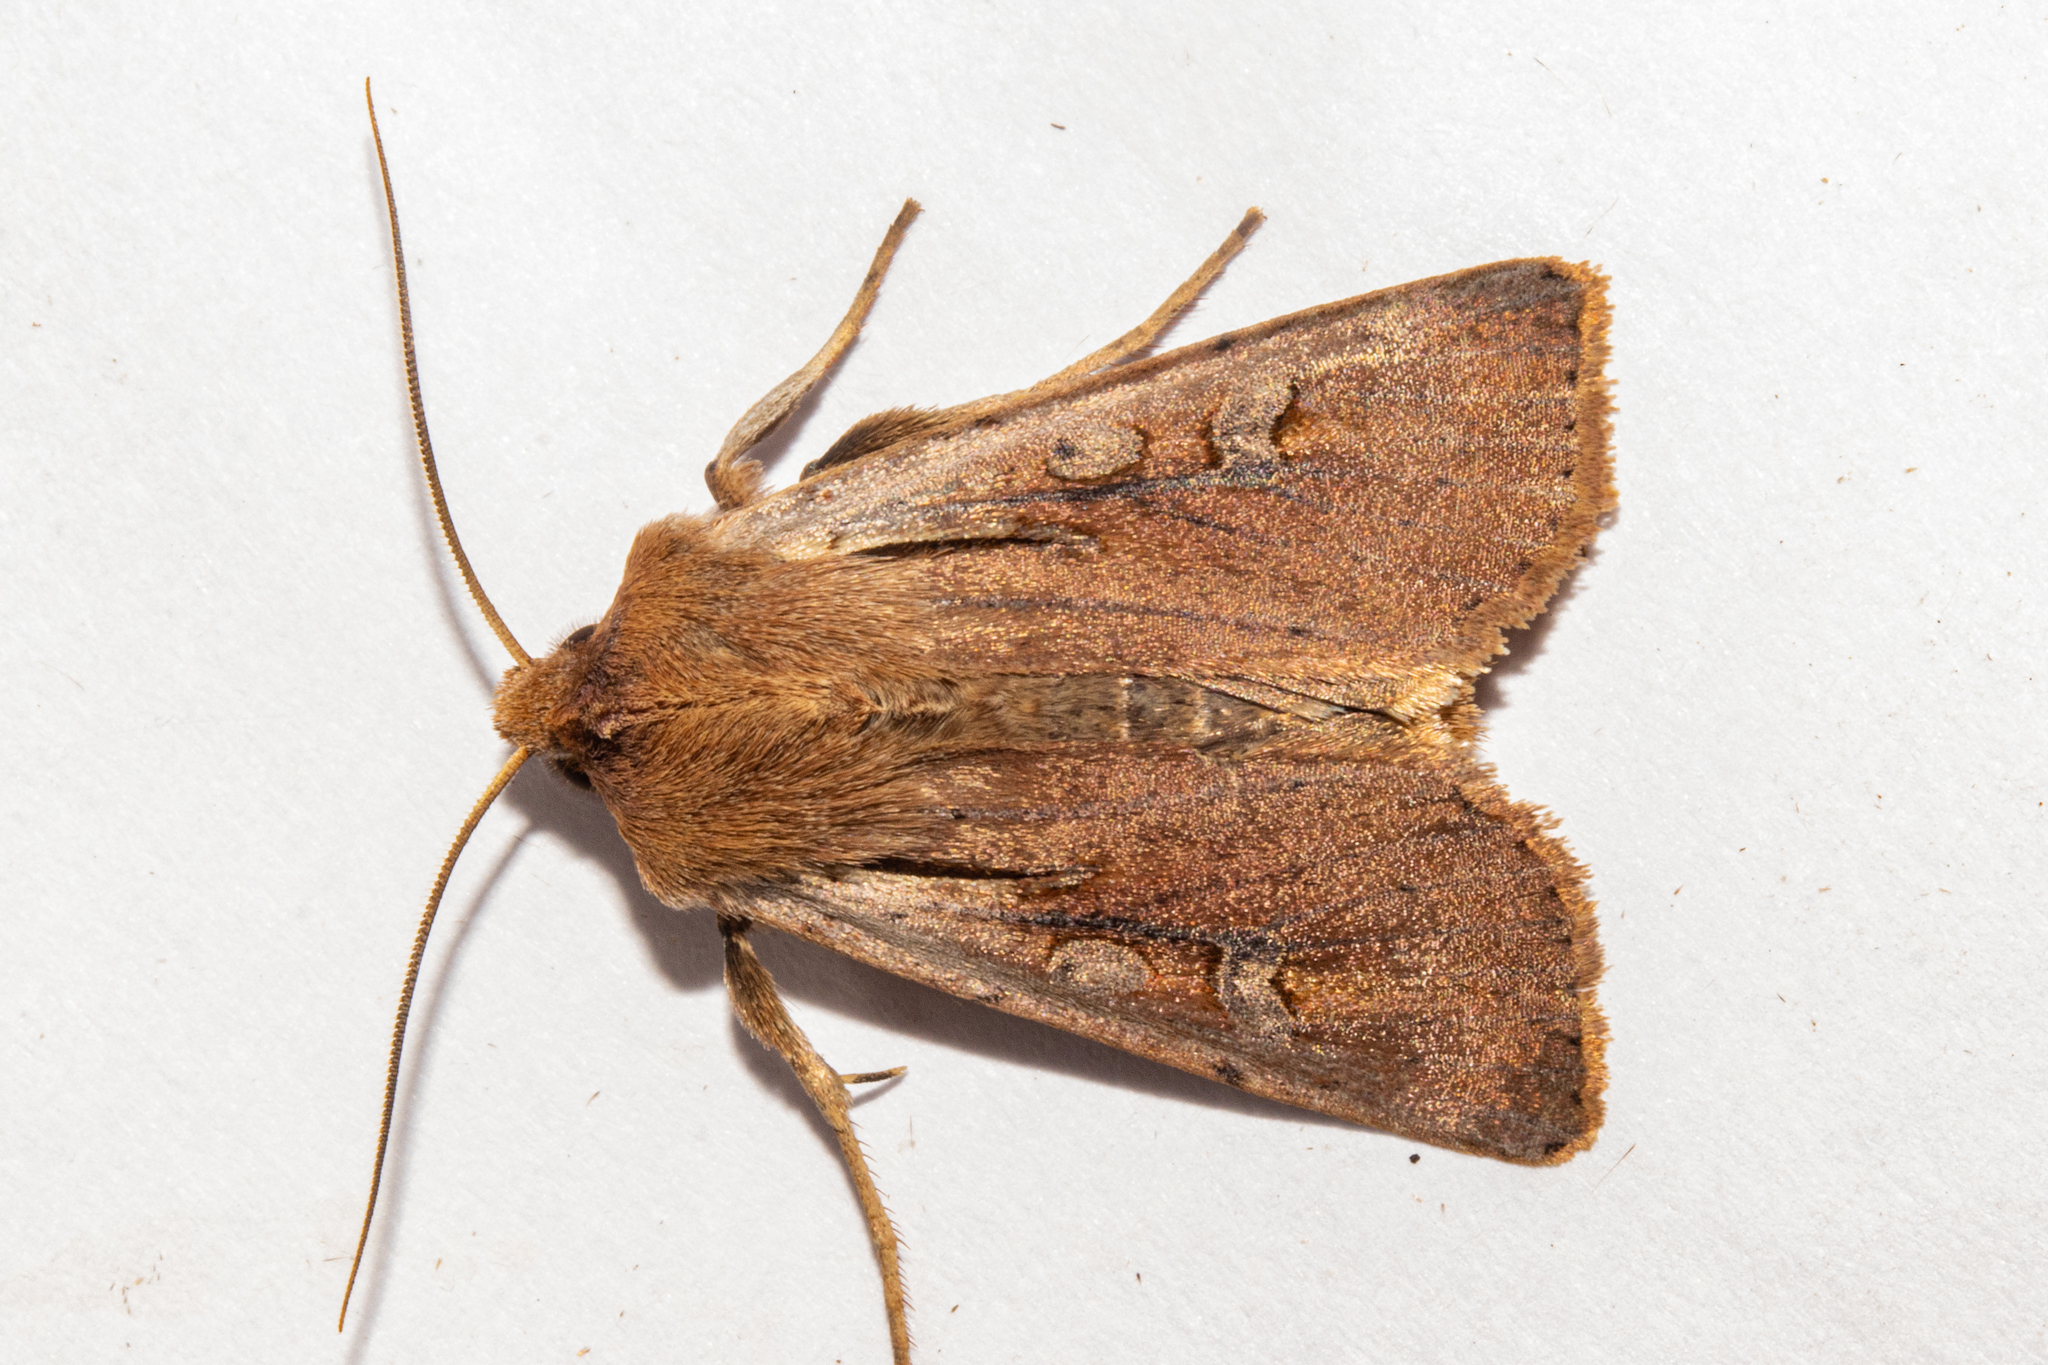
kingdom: Animalia
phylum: Arthropoda
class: Insecta
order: Lepidoptera
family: Noctuidae
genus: Ichneutica
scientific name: Ichneutica atristriga
